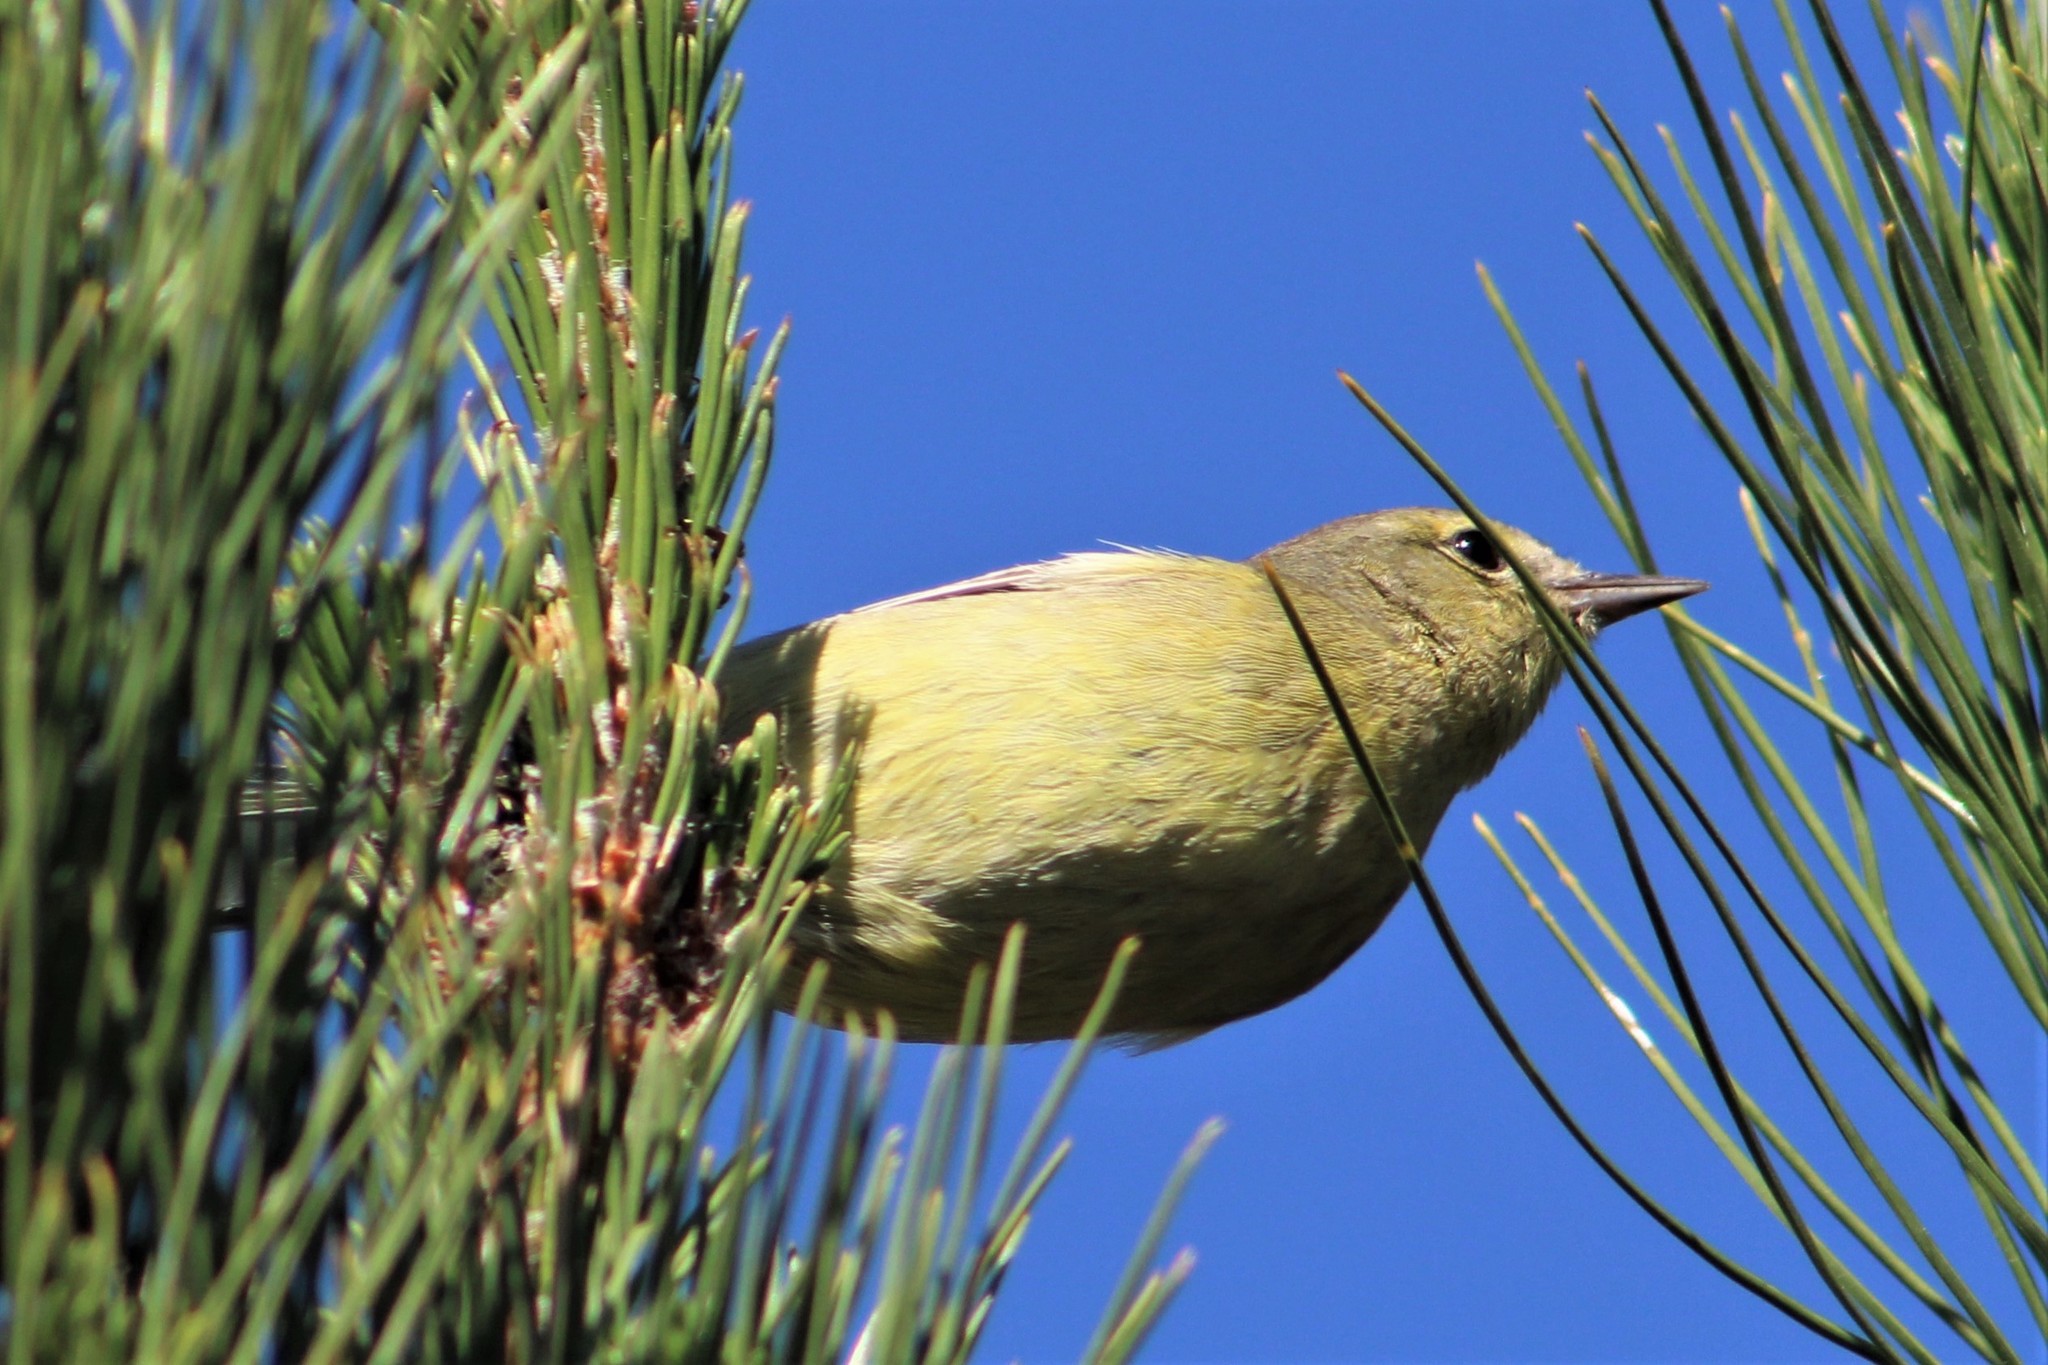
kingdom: Animalia
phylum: Chordata
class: Aves
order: Passeriformes
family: Parulidae
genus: Leiothlypis
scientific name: Leiothlypis celata
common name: Orange-crowned warbler
